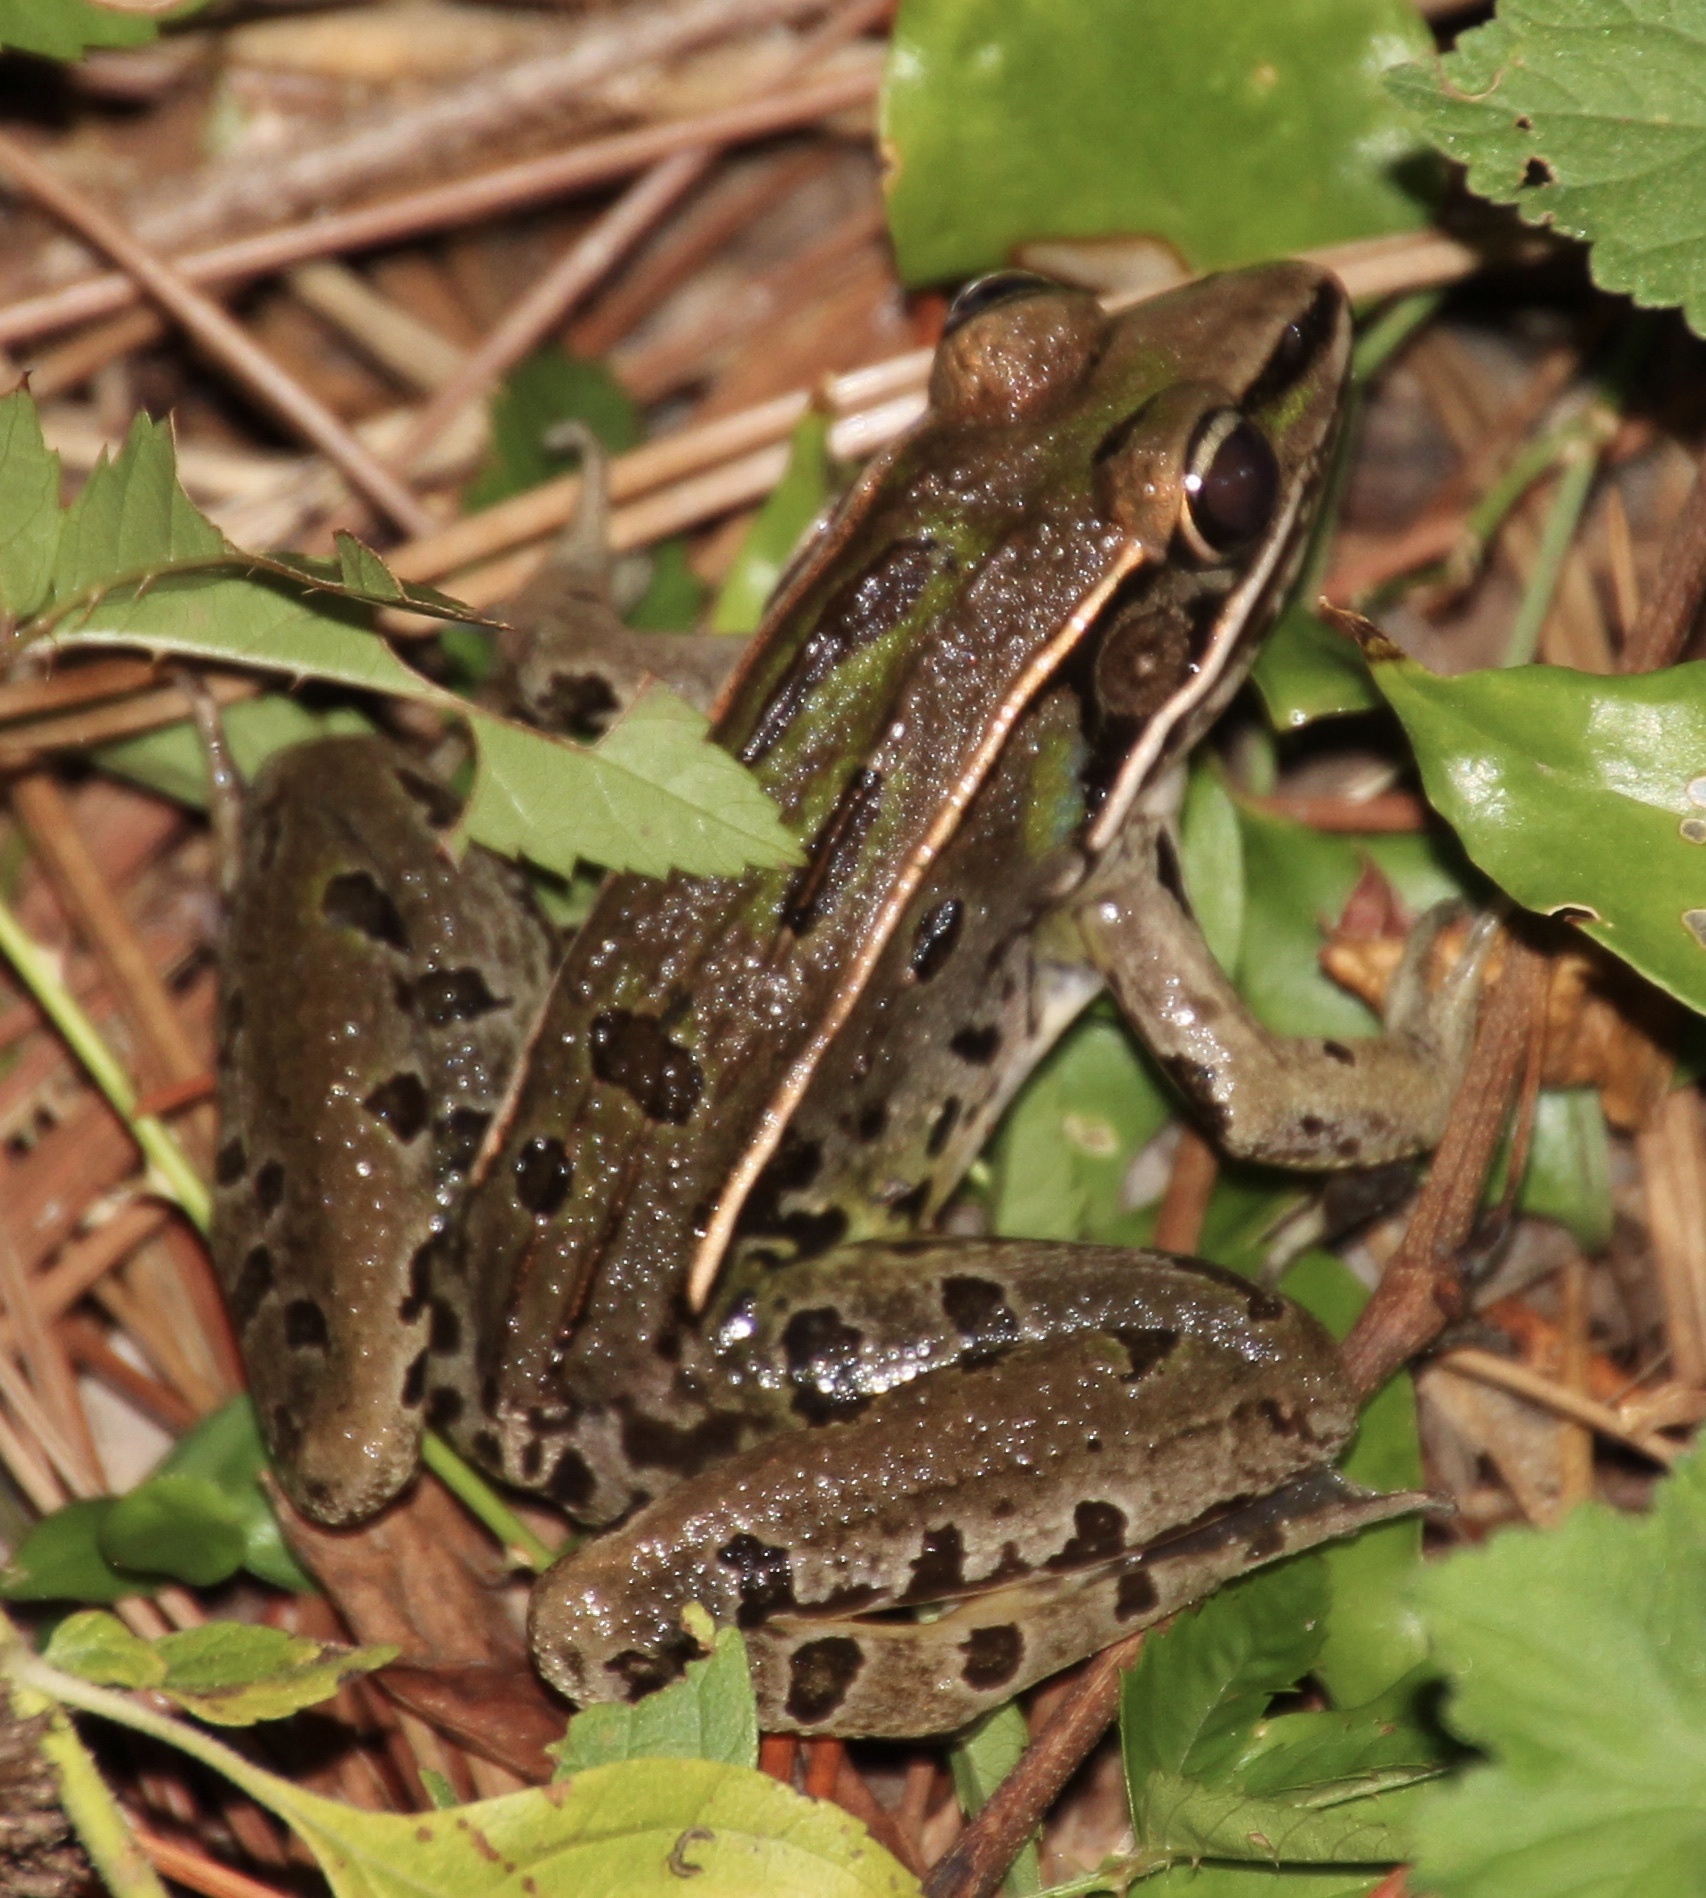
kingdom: Animalia
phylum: Chordata
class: Amphibia
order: Anura
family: Ranidae
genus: Lithobates
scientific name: Lithobates sphenocephalus
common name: Southern leopard frog
